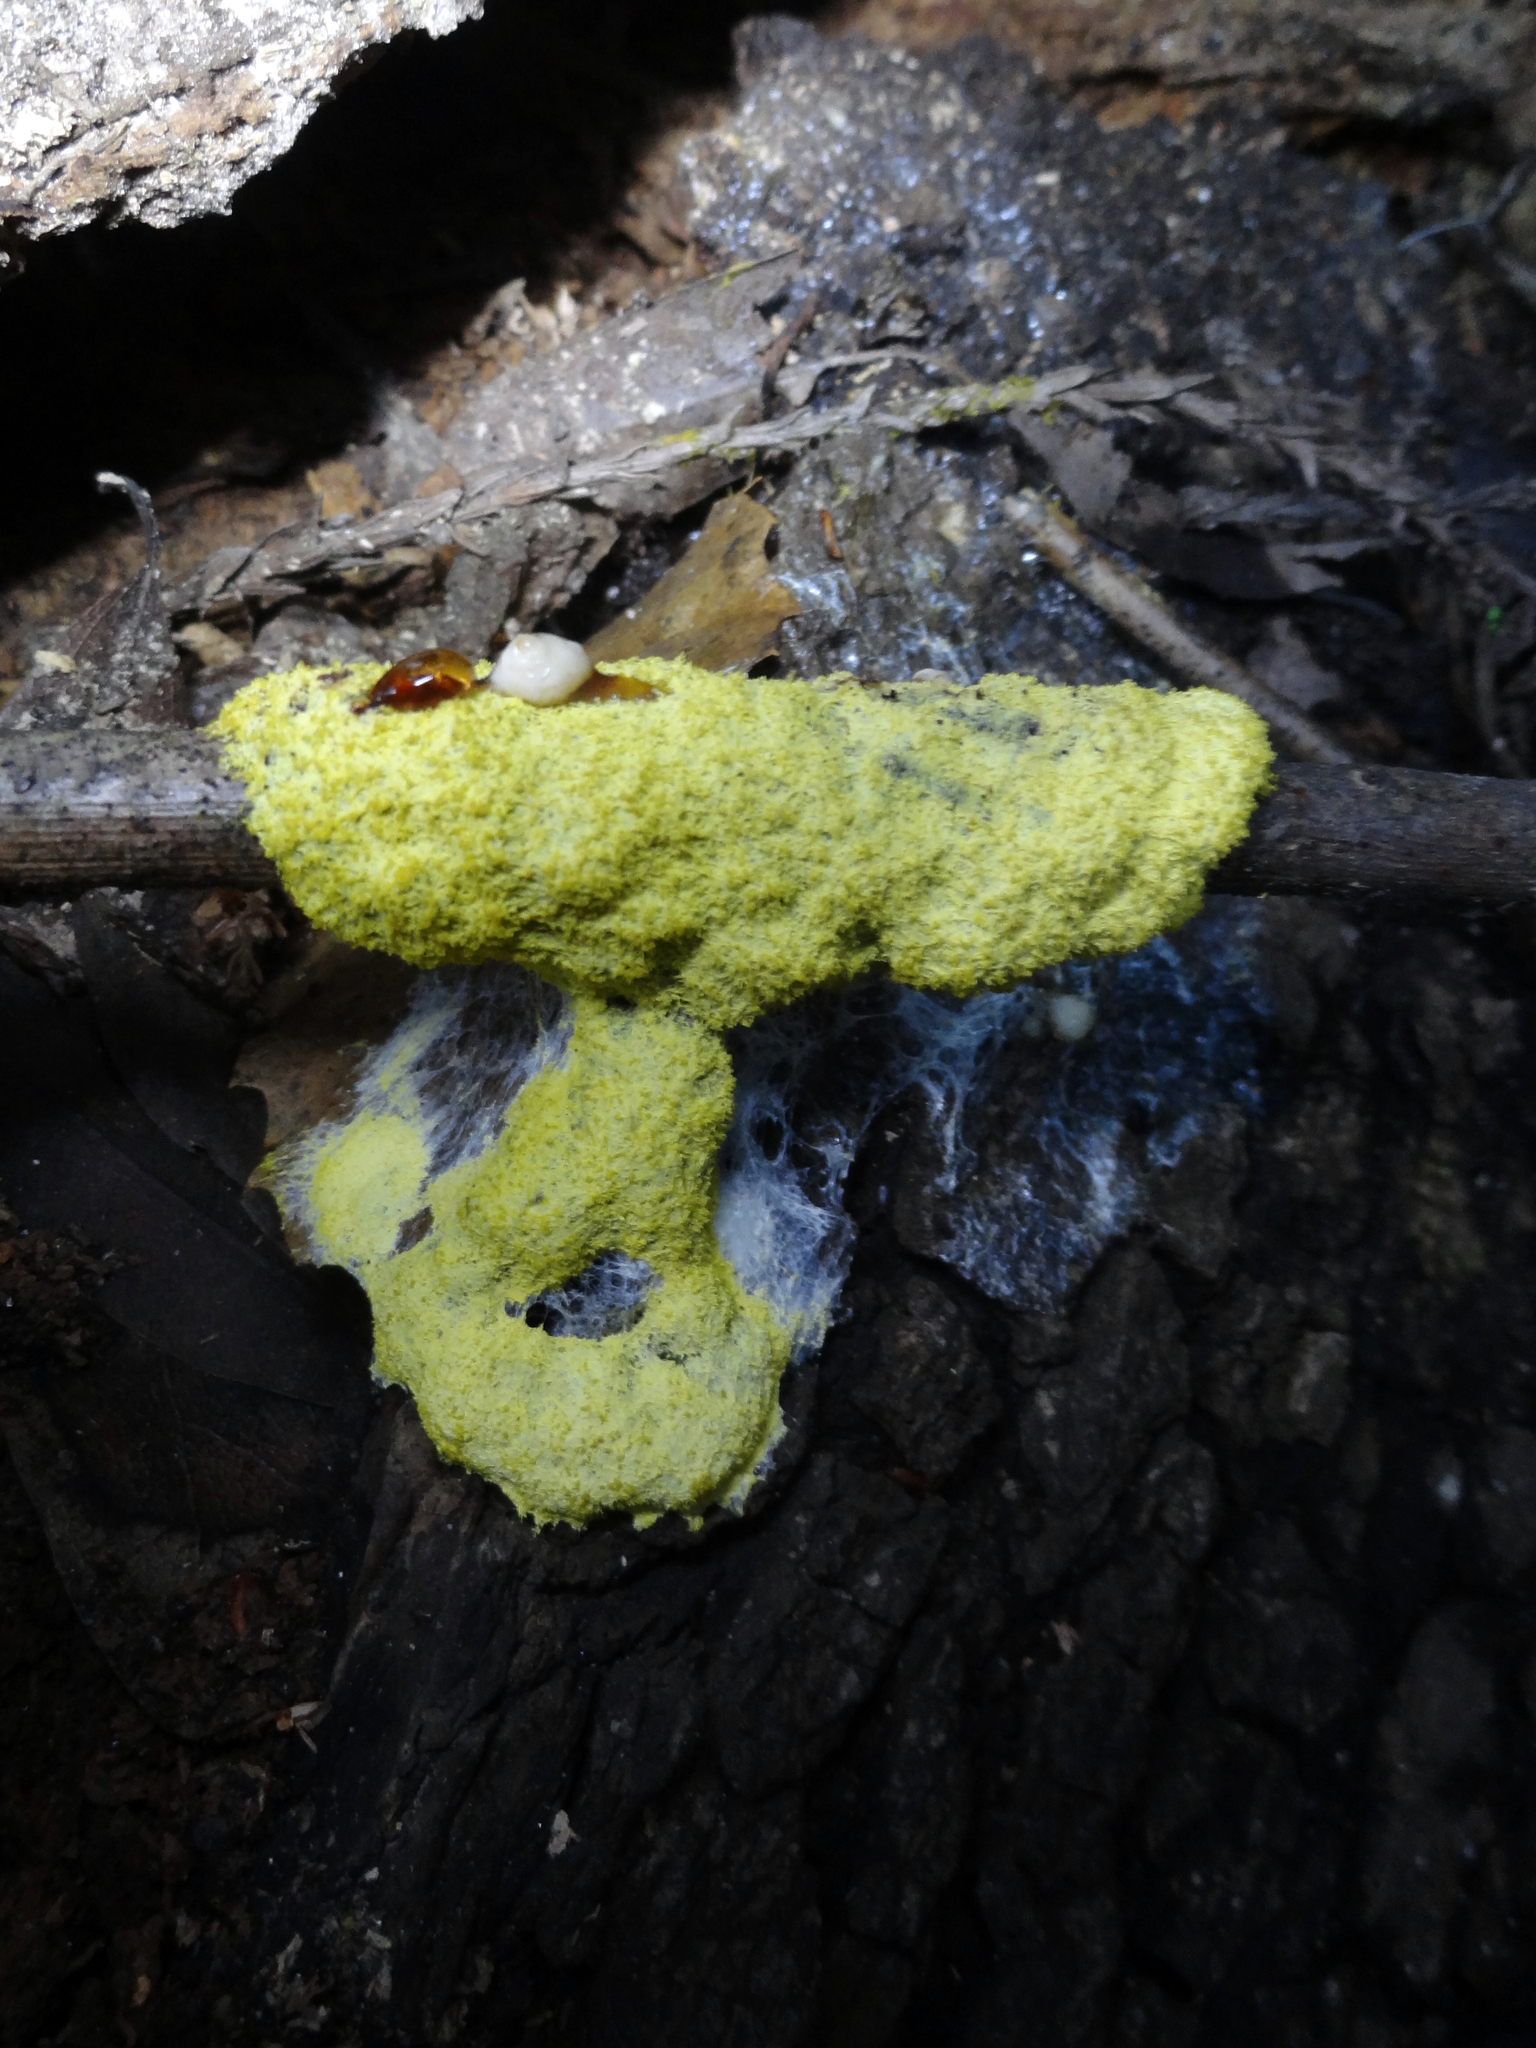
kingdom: Protozoa
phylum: Mycetozoa
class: Myxomycetes
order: Physarales
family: Physaraceae
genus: Fuligo
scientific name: Fuligo septica
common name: Dog vomit slime mold
